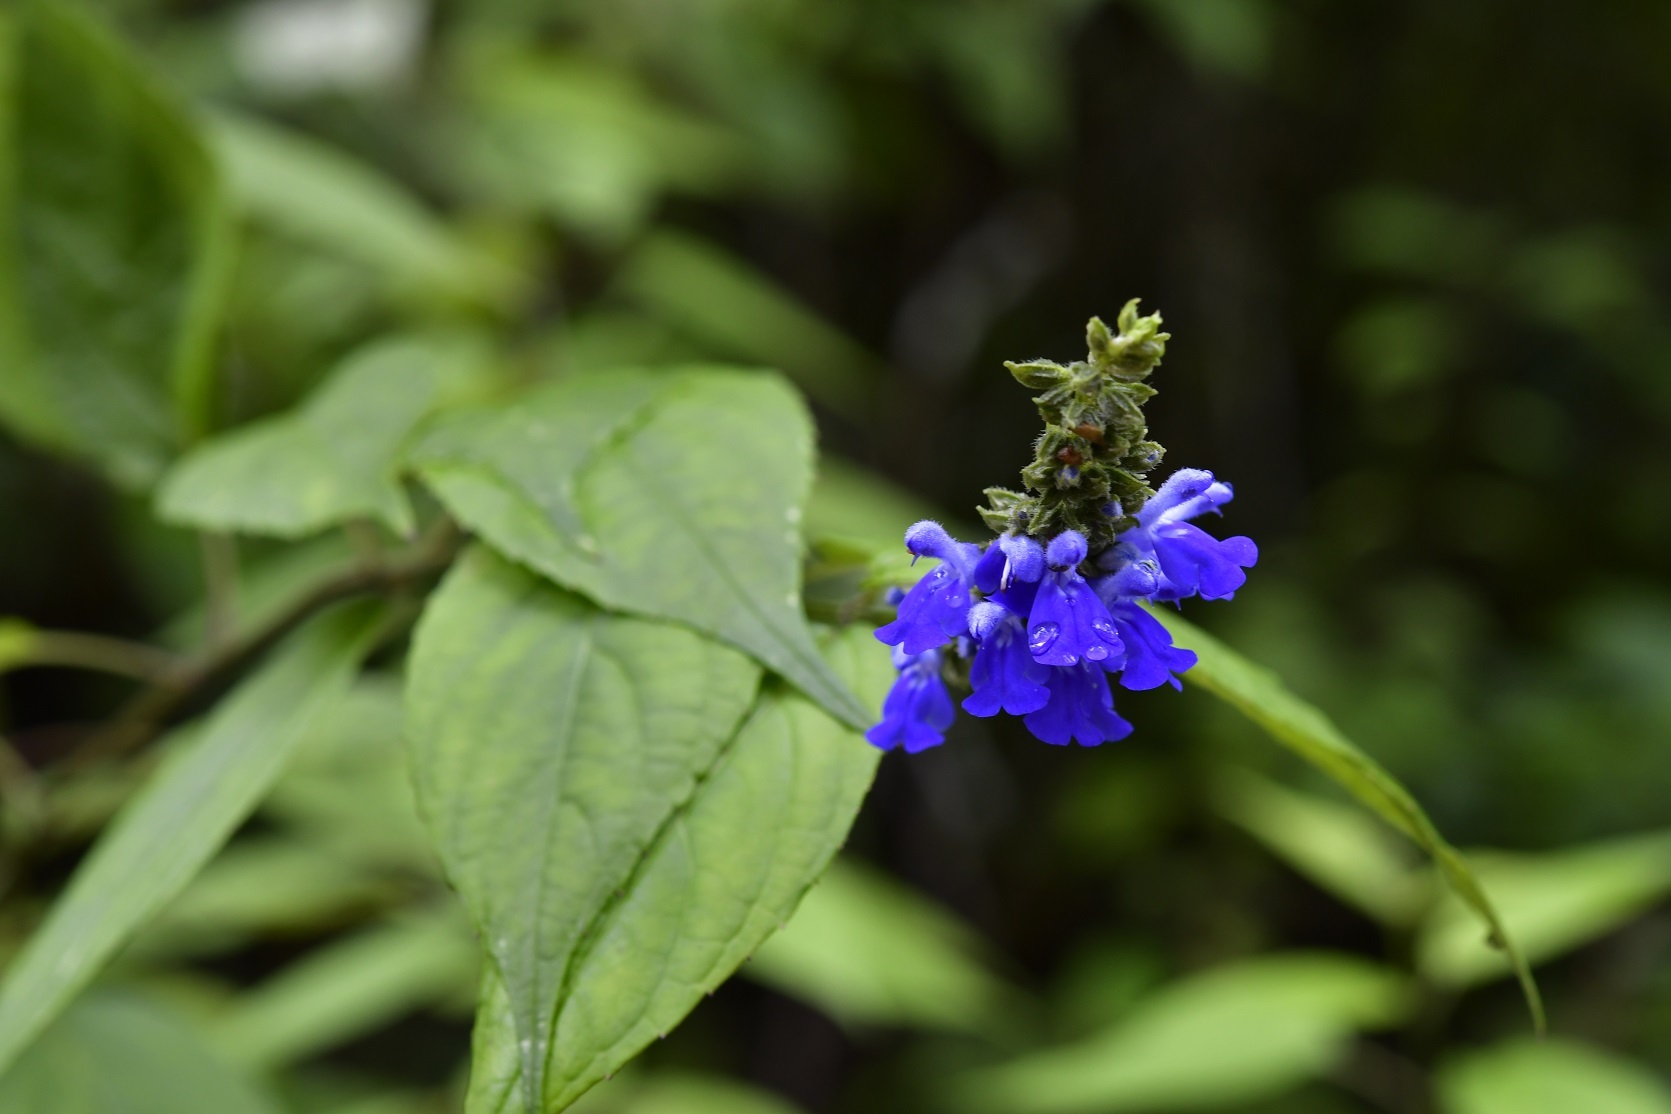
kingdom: Plantae
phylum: Tracheophyta
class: Magnoliopsida
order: Lamiales
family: Lamiaceae
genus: Salvia
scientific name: Salvia connivens
